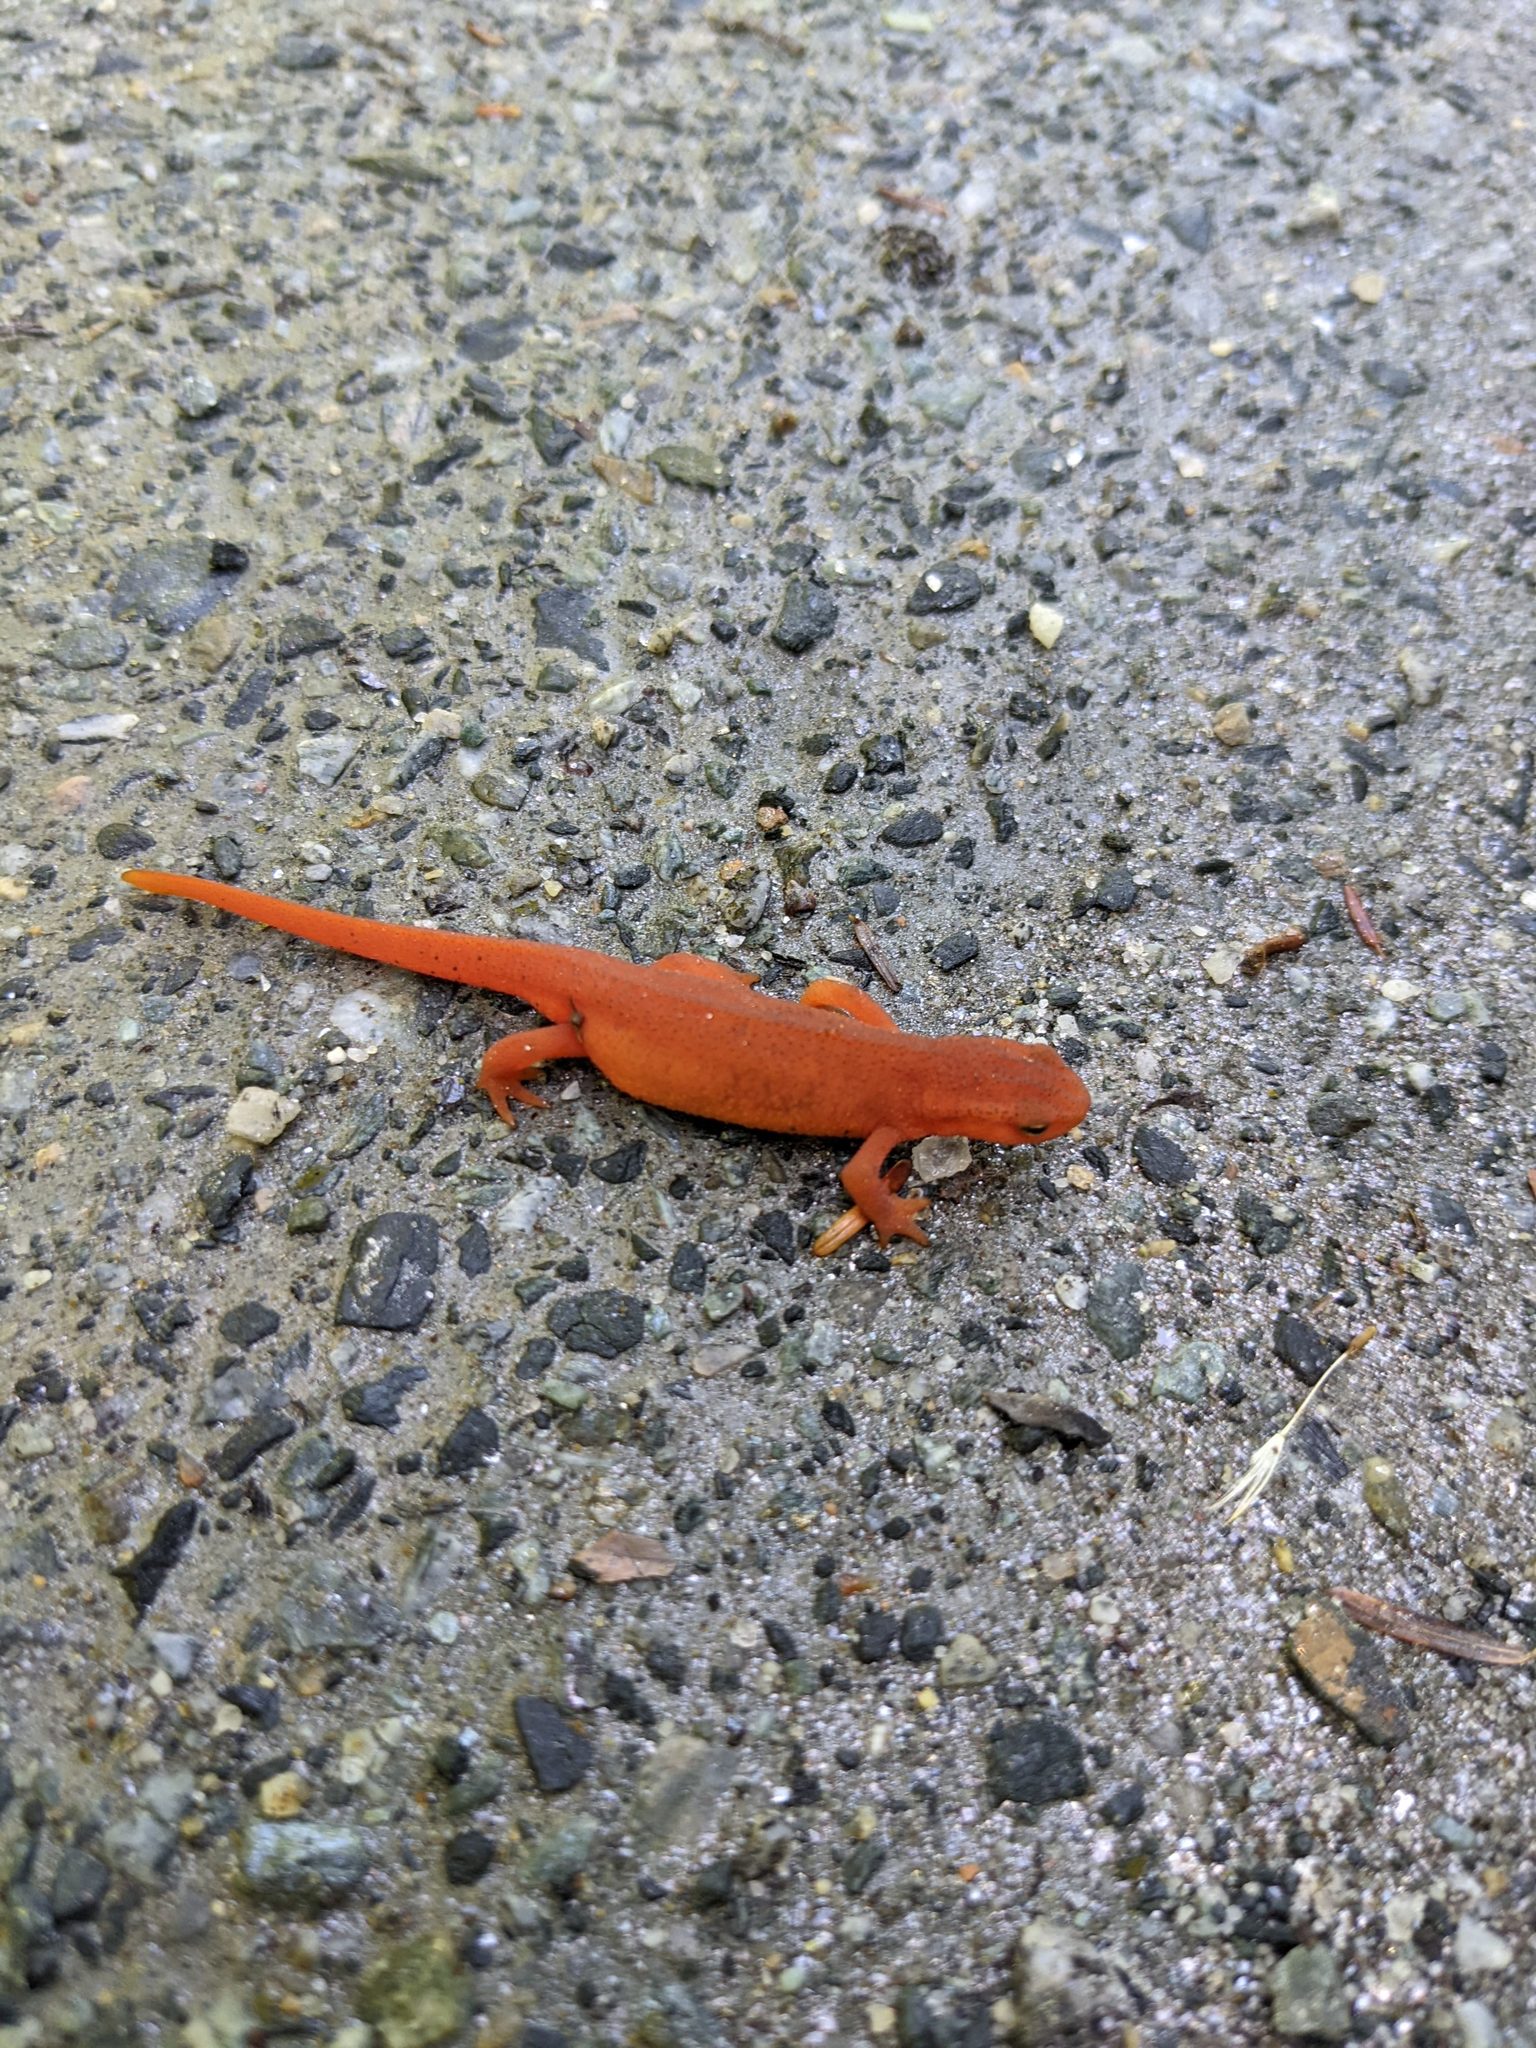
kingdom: Animalia
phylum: Chordata
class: Amphibia
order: Caudata
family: Salamandridae
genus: Notophthalmus
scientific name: Notophthalmus viridescens
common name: Eastern newt
